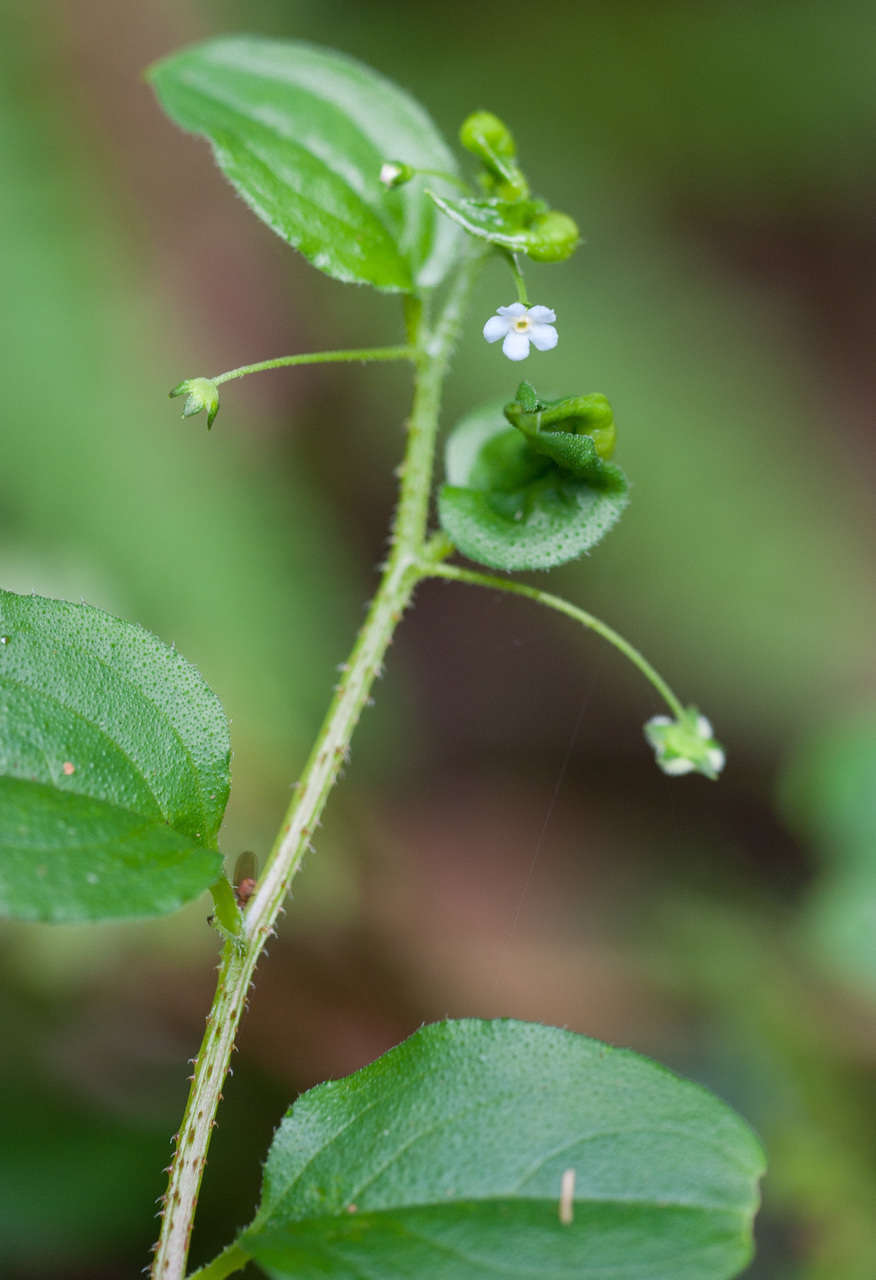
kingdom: Plantae
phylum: Tracheophyta
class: Magnoliopsida
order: Boraginales
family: Boraginaceae
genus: Hackelia
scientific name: Hackelia latifolia
